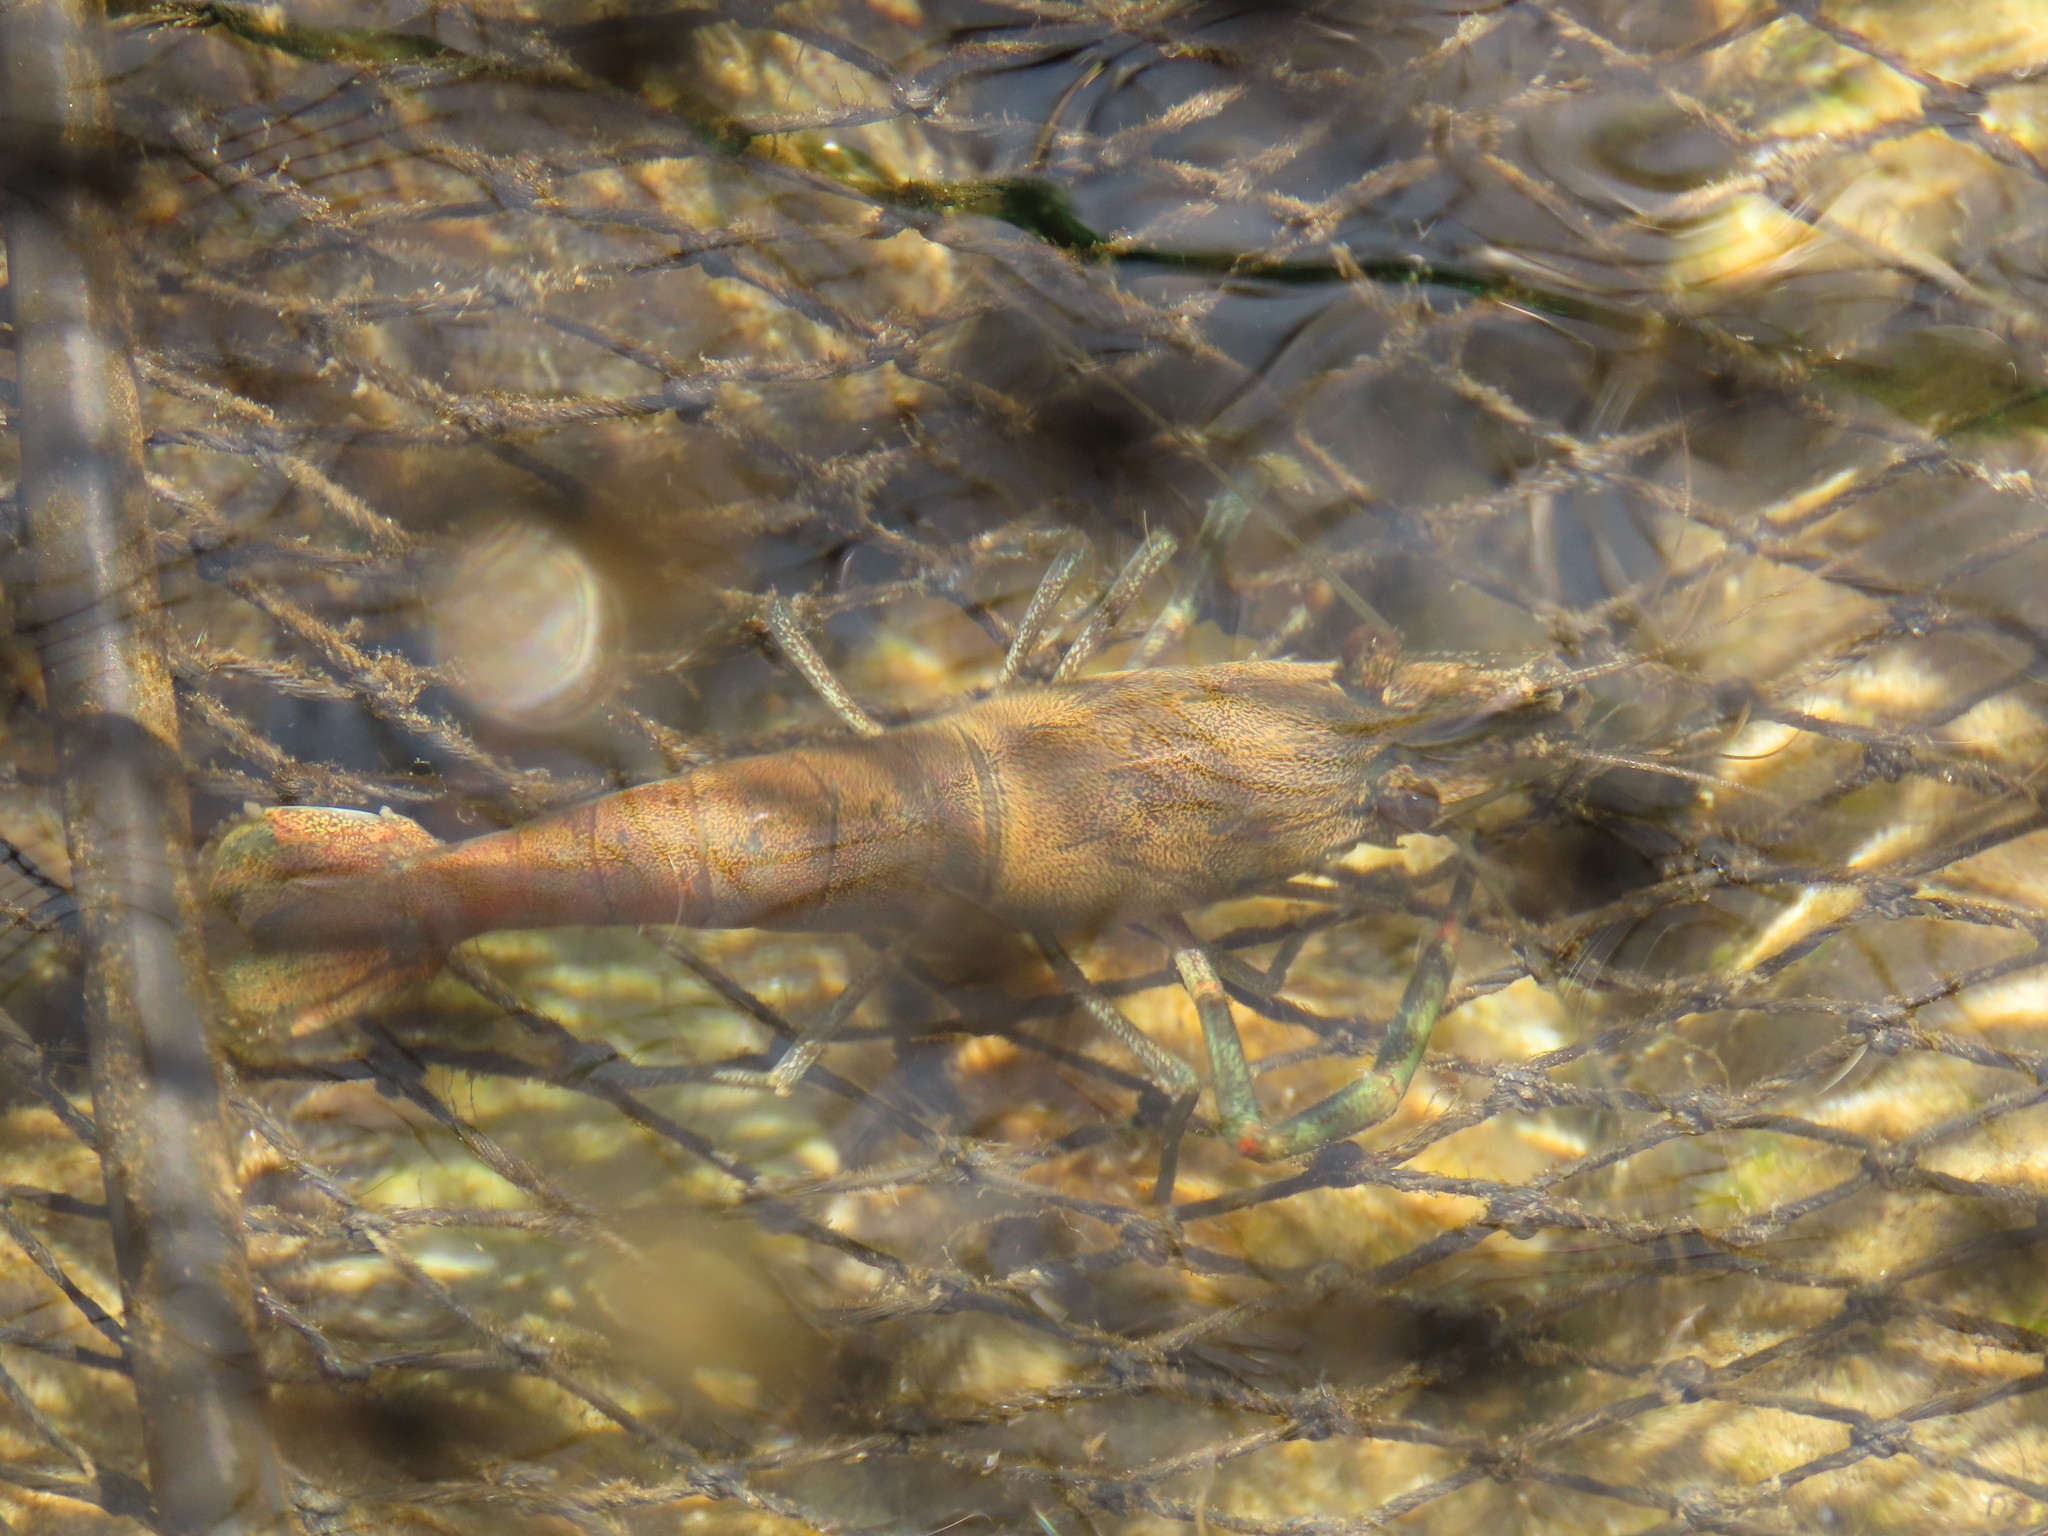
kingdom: Animalia
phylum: Arthropoda
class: Malacostraca
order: Decapoda
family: Palaemonidae
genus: Macrobrachium
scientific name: Macrobrachium asperulum
